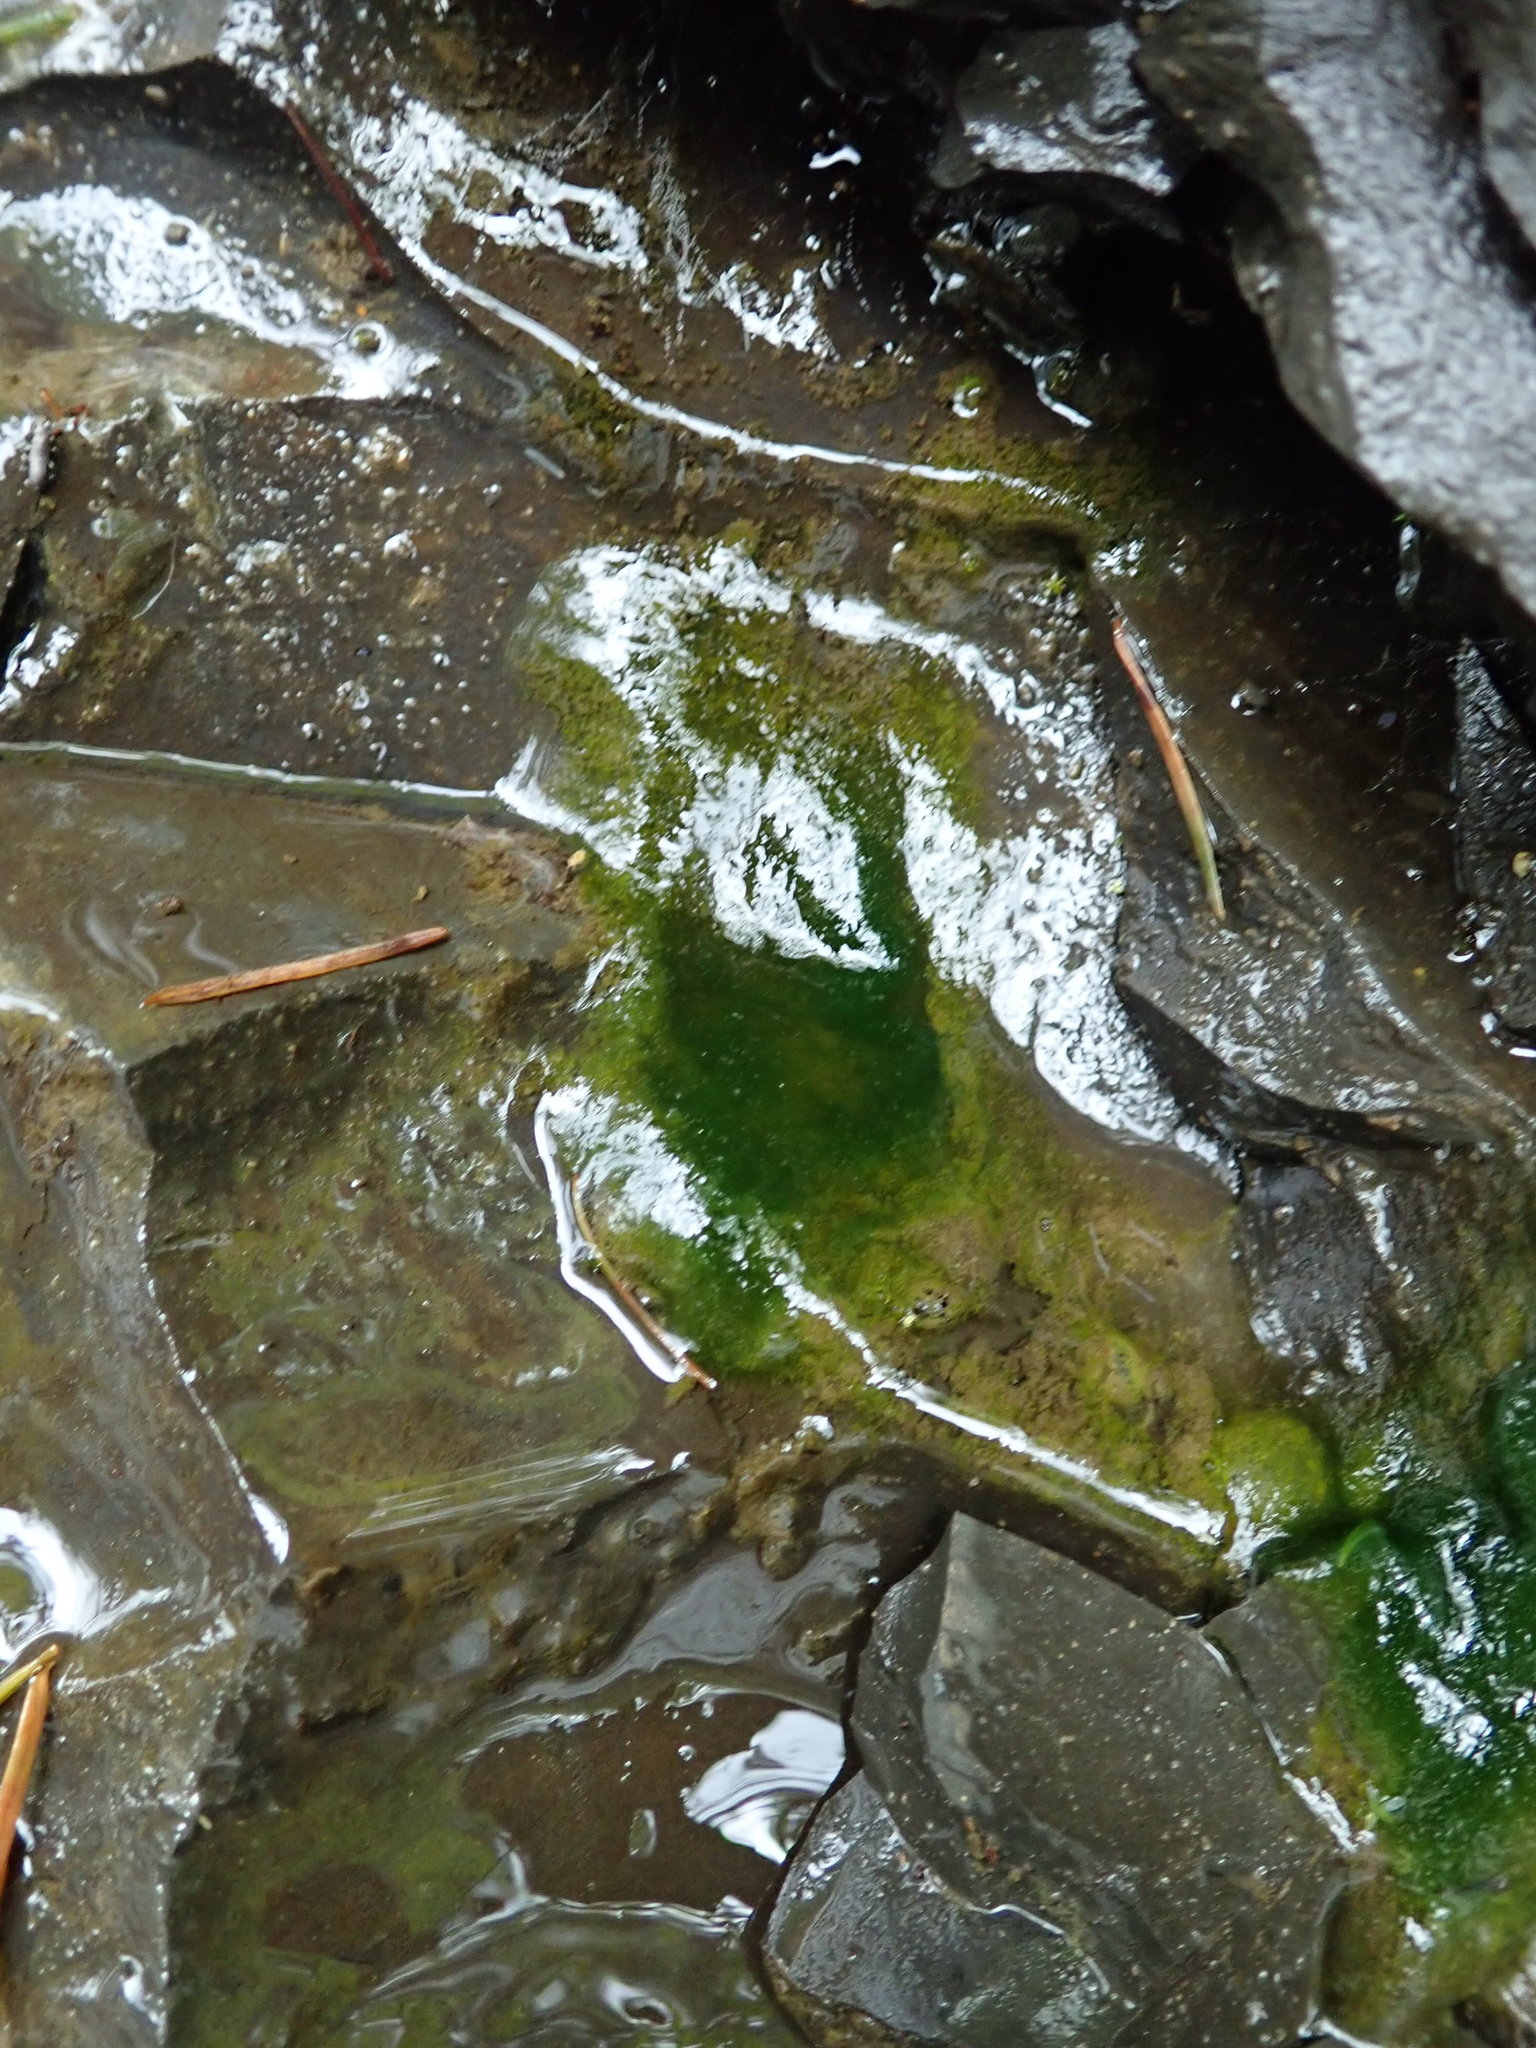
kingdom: Plantae
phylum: Charophyta
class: Zygnematophyceae
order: Zygnematales
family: Zygnemataceae
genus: Spirogyra
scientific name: Spirogyra
